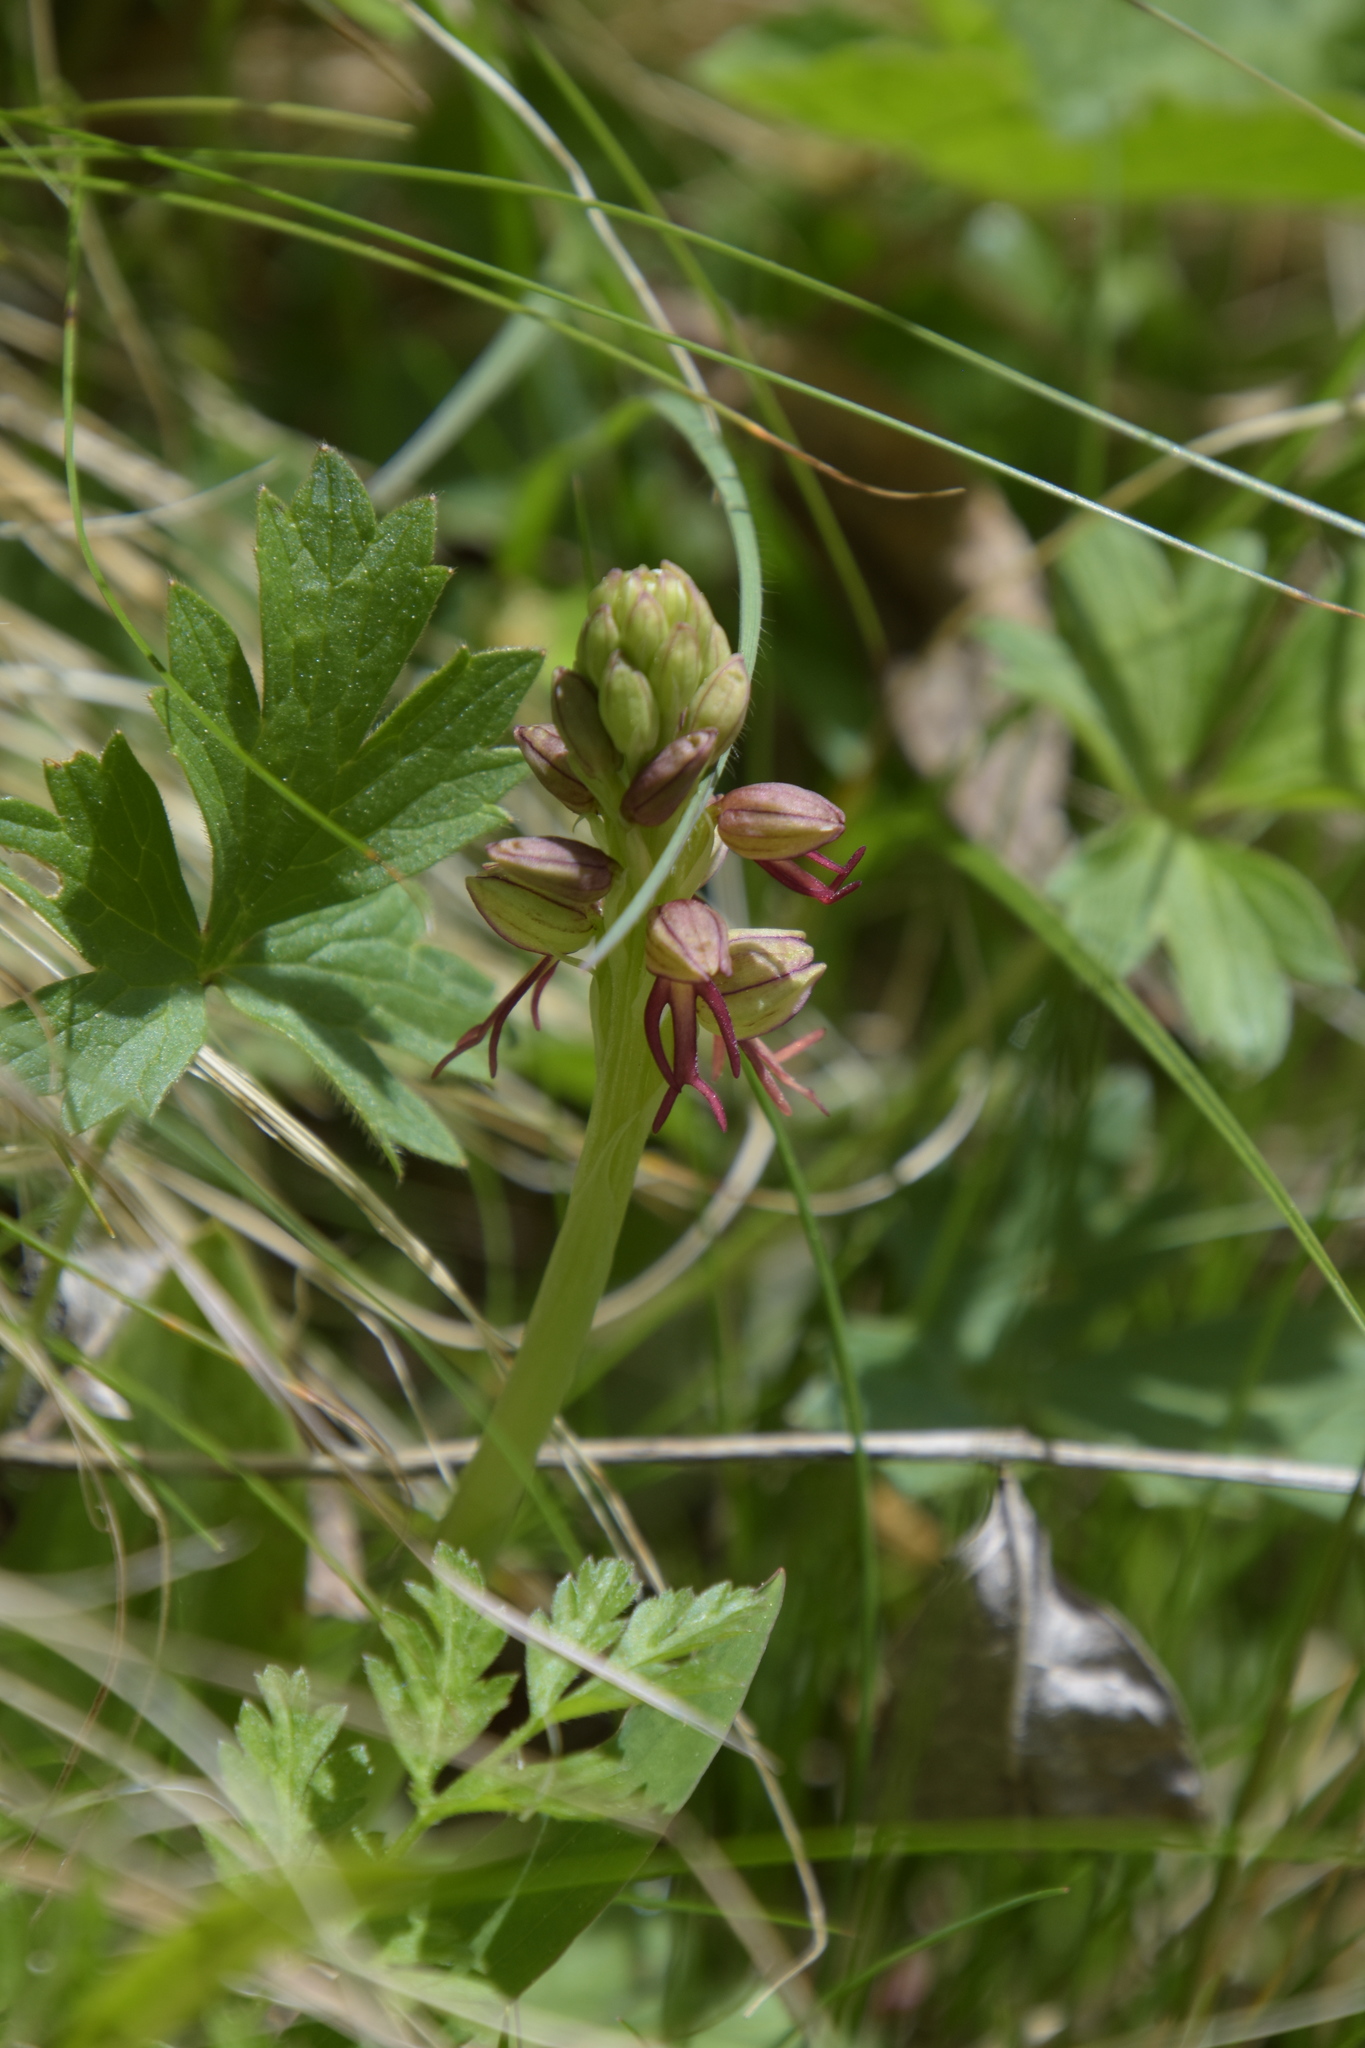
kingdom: Plantae
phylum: Tracheophyta
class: Liliopsida
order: Asparagales
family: Orchidaceae
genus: Orchis
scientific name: Orchis anthropophora
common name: Man orchid
